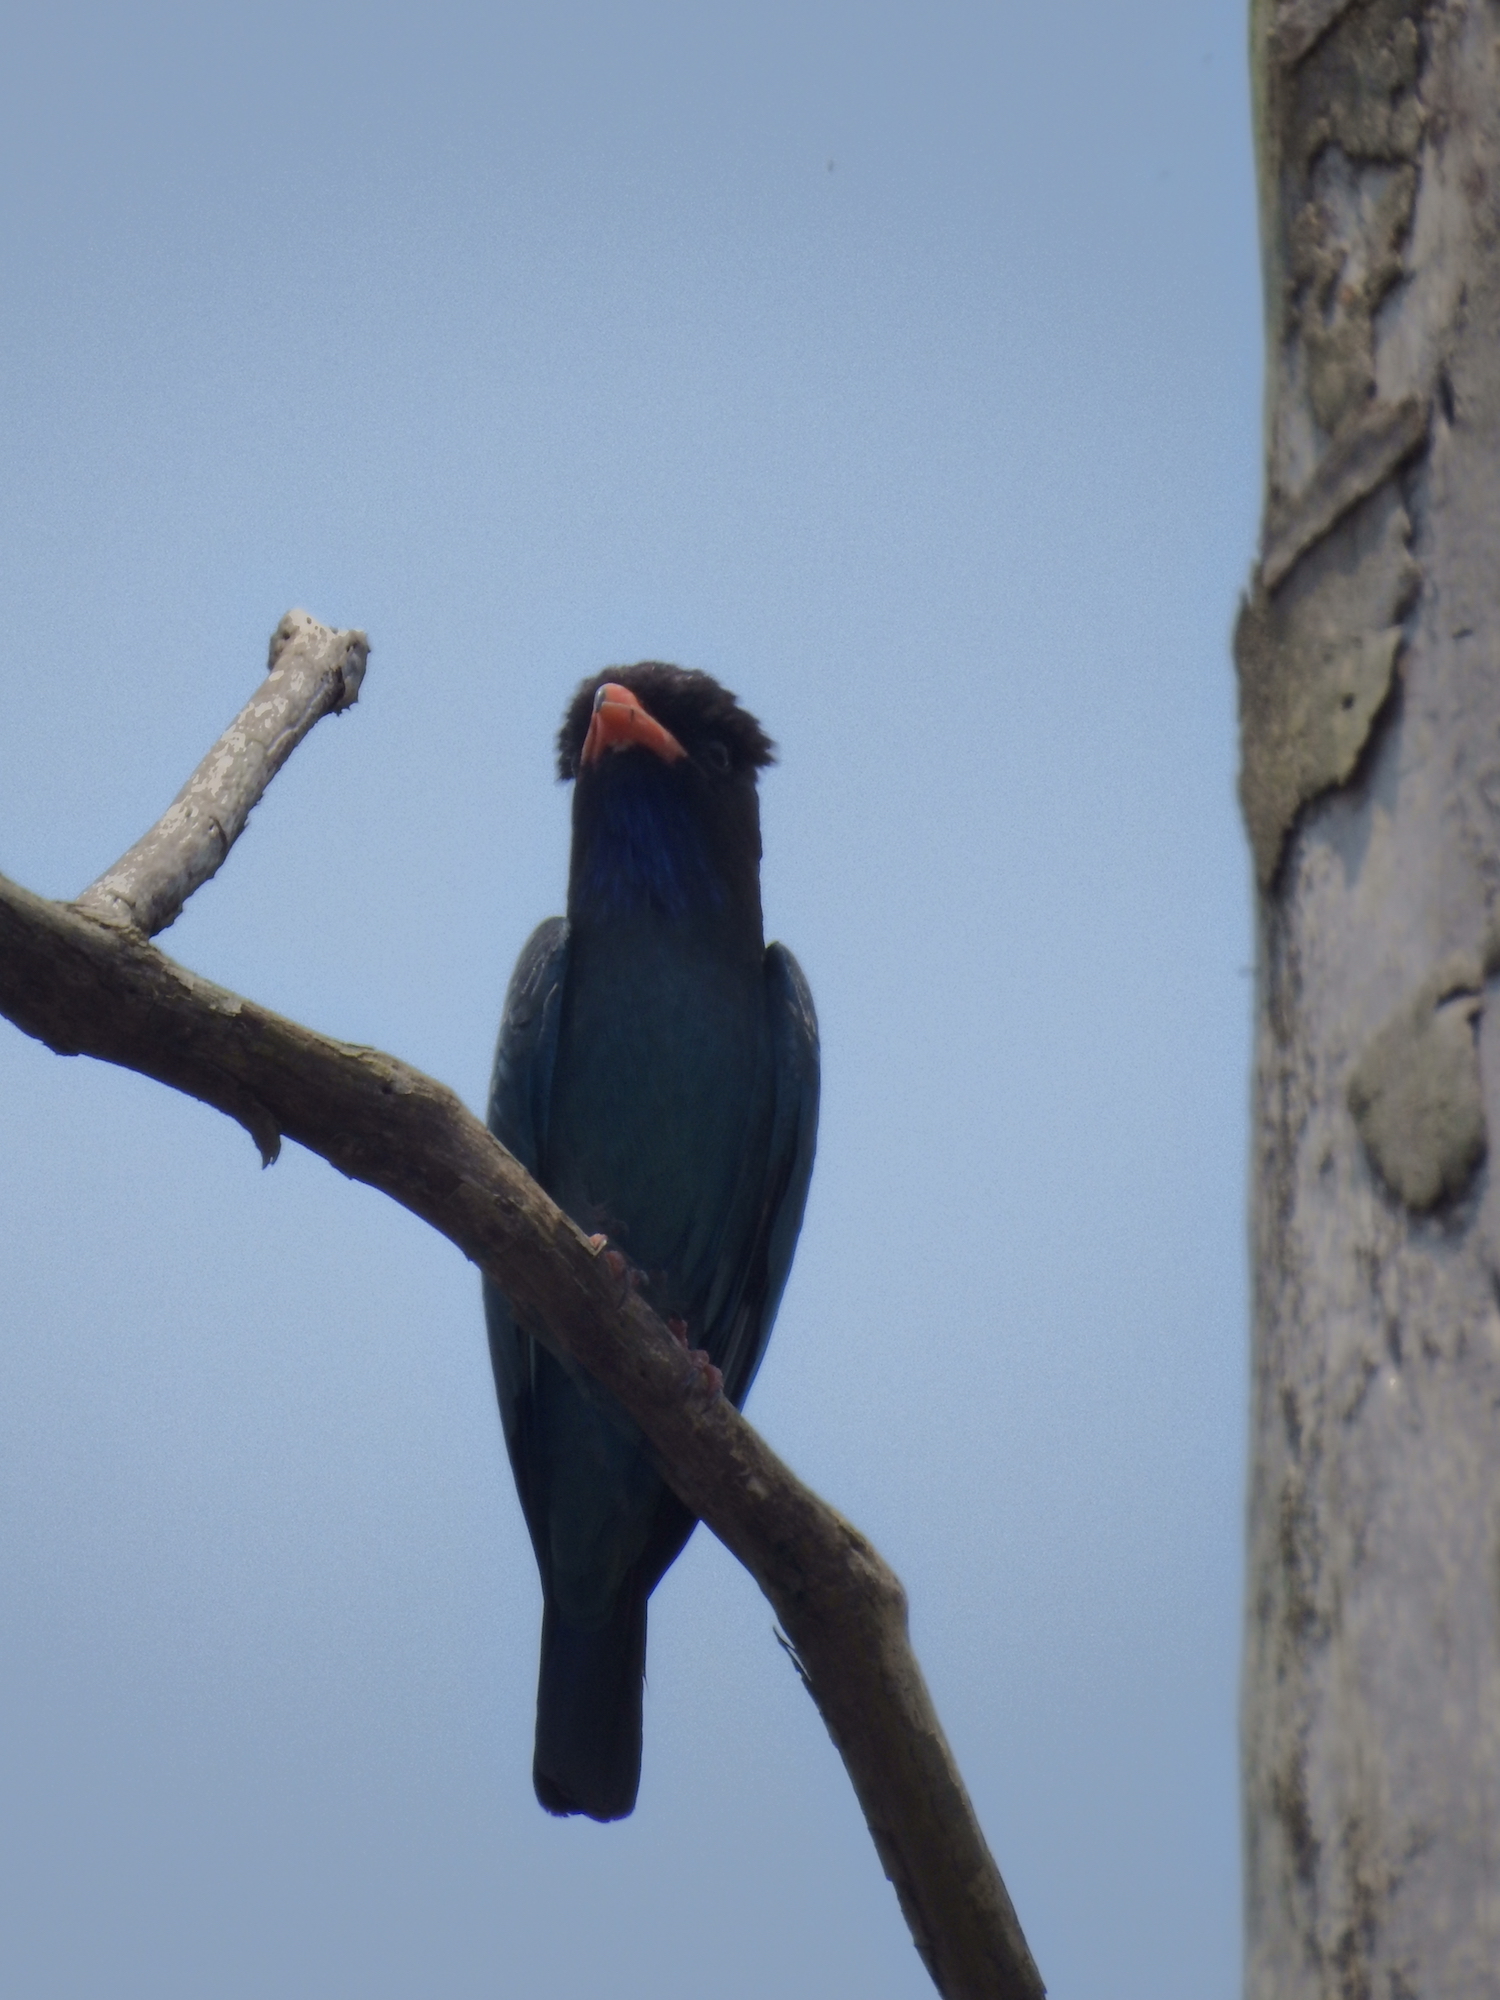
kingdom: Animalia
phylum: Chordata
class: Aves
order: Coraciiformes
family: Coraciidae
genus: Eurystomus
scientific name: Eurystomus orientalis
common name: Oriental dollarbird
